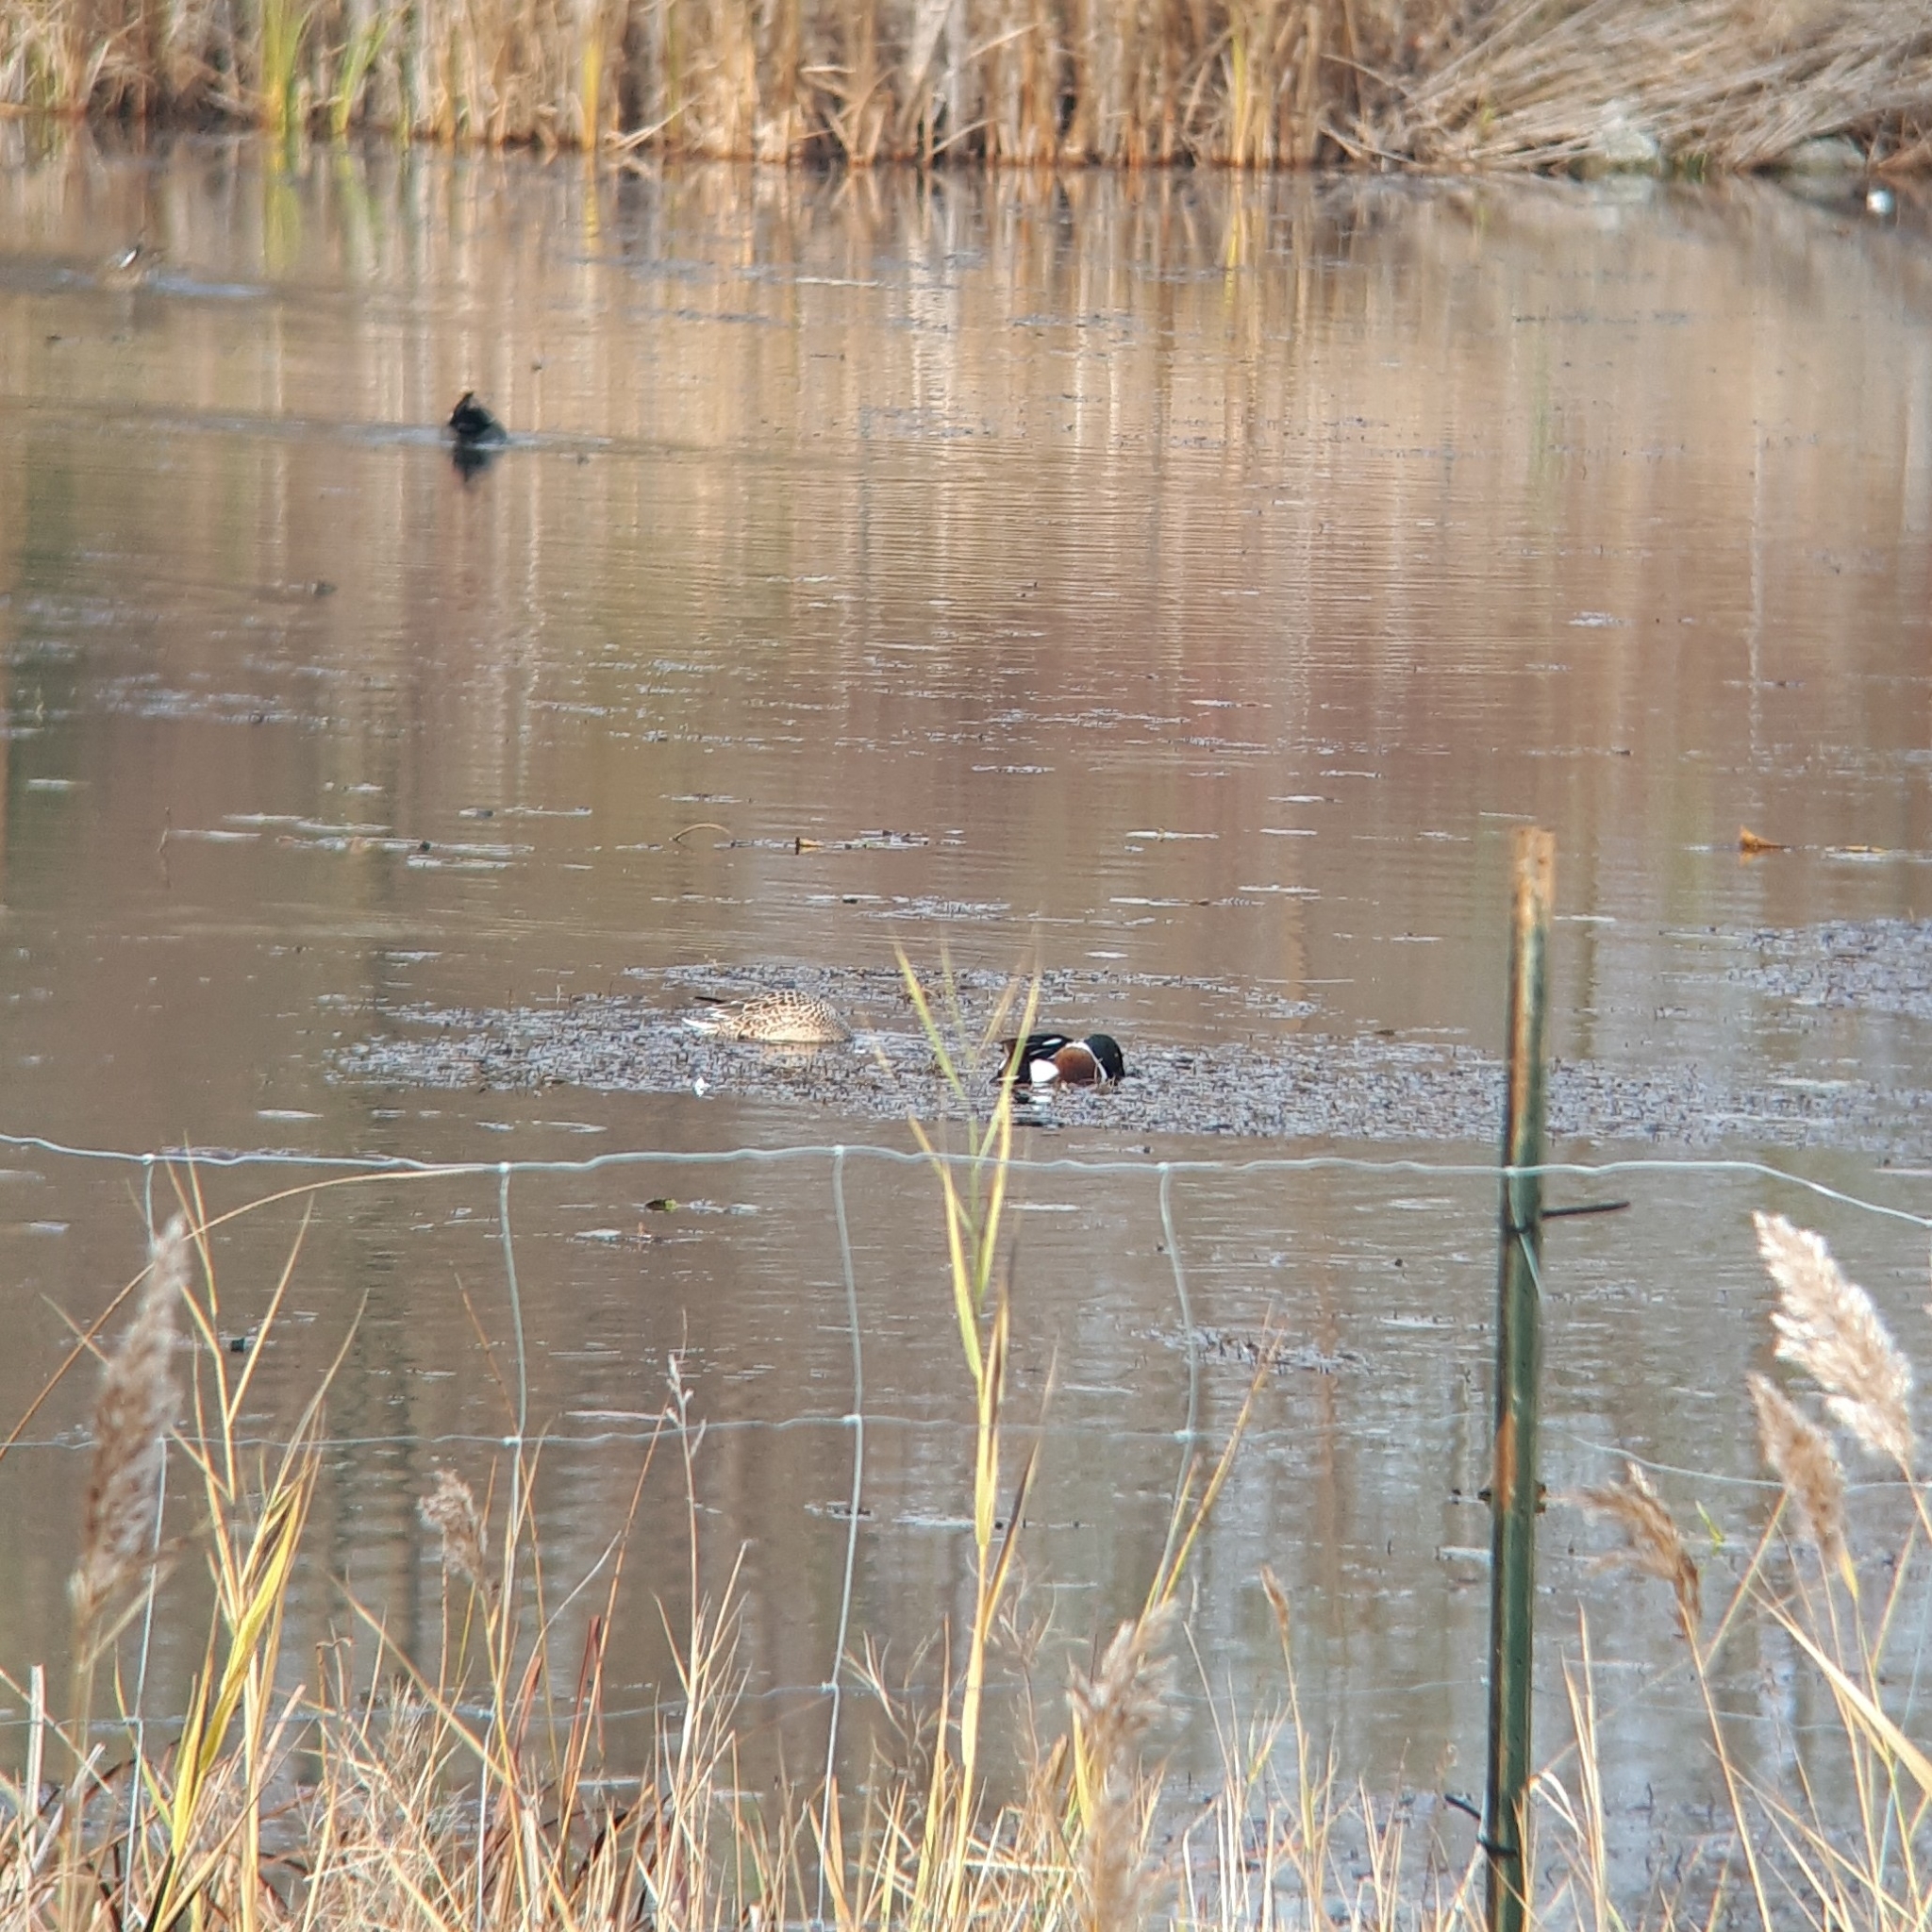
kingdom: Animalia
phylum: Chordata
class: Aves
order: Anseriformes
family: Anatidae
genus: Spatula
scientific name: Spatula clypeata
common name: Northern shoveler
